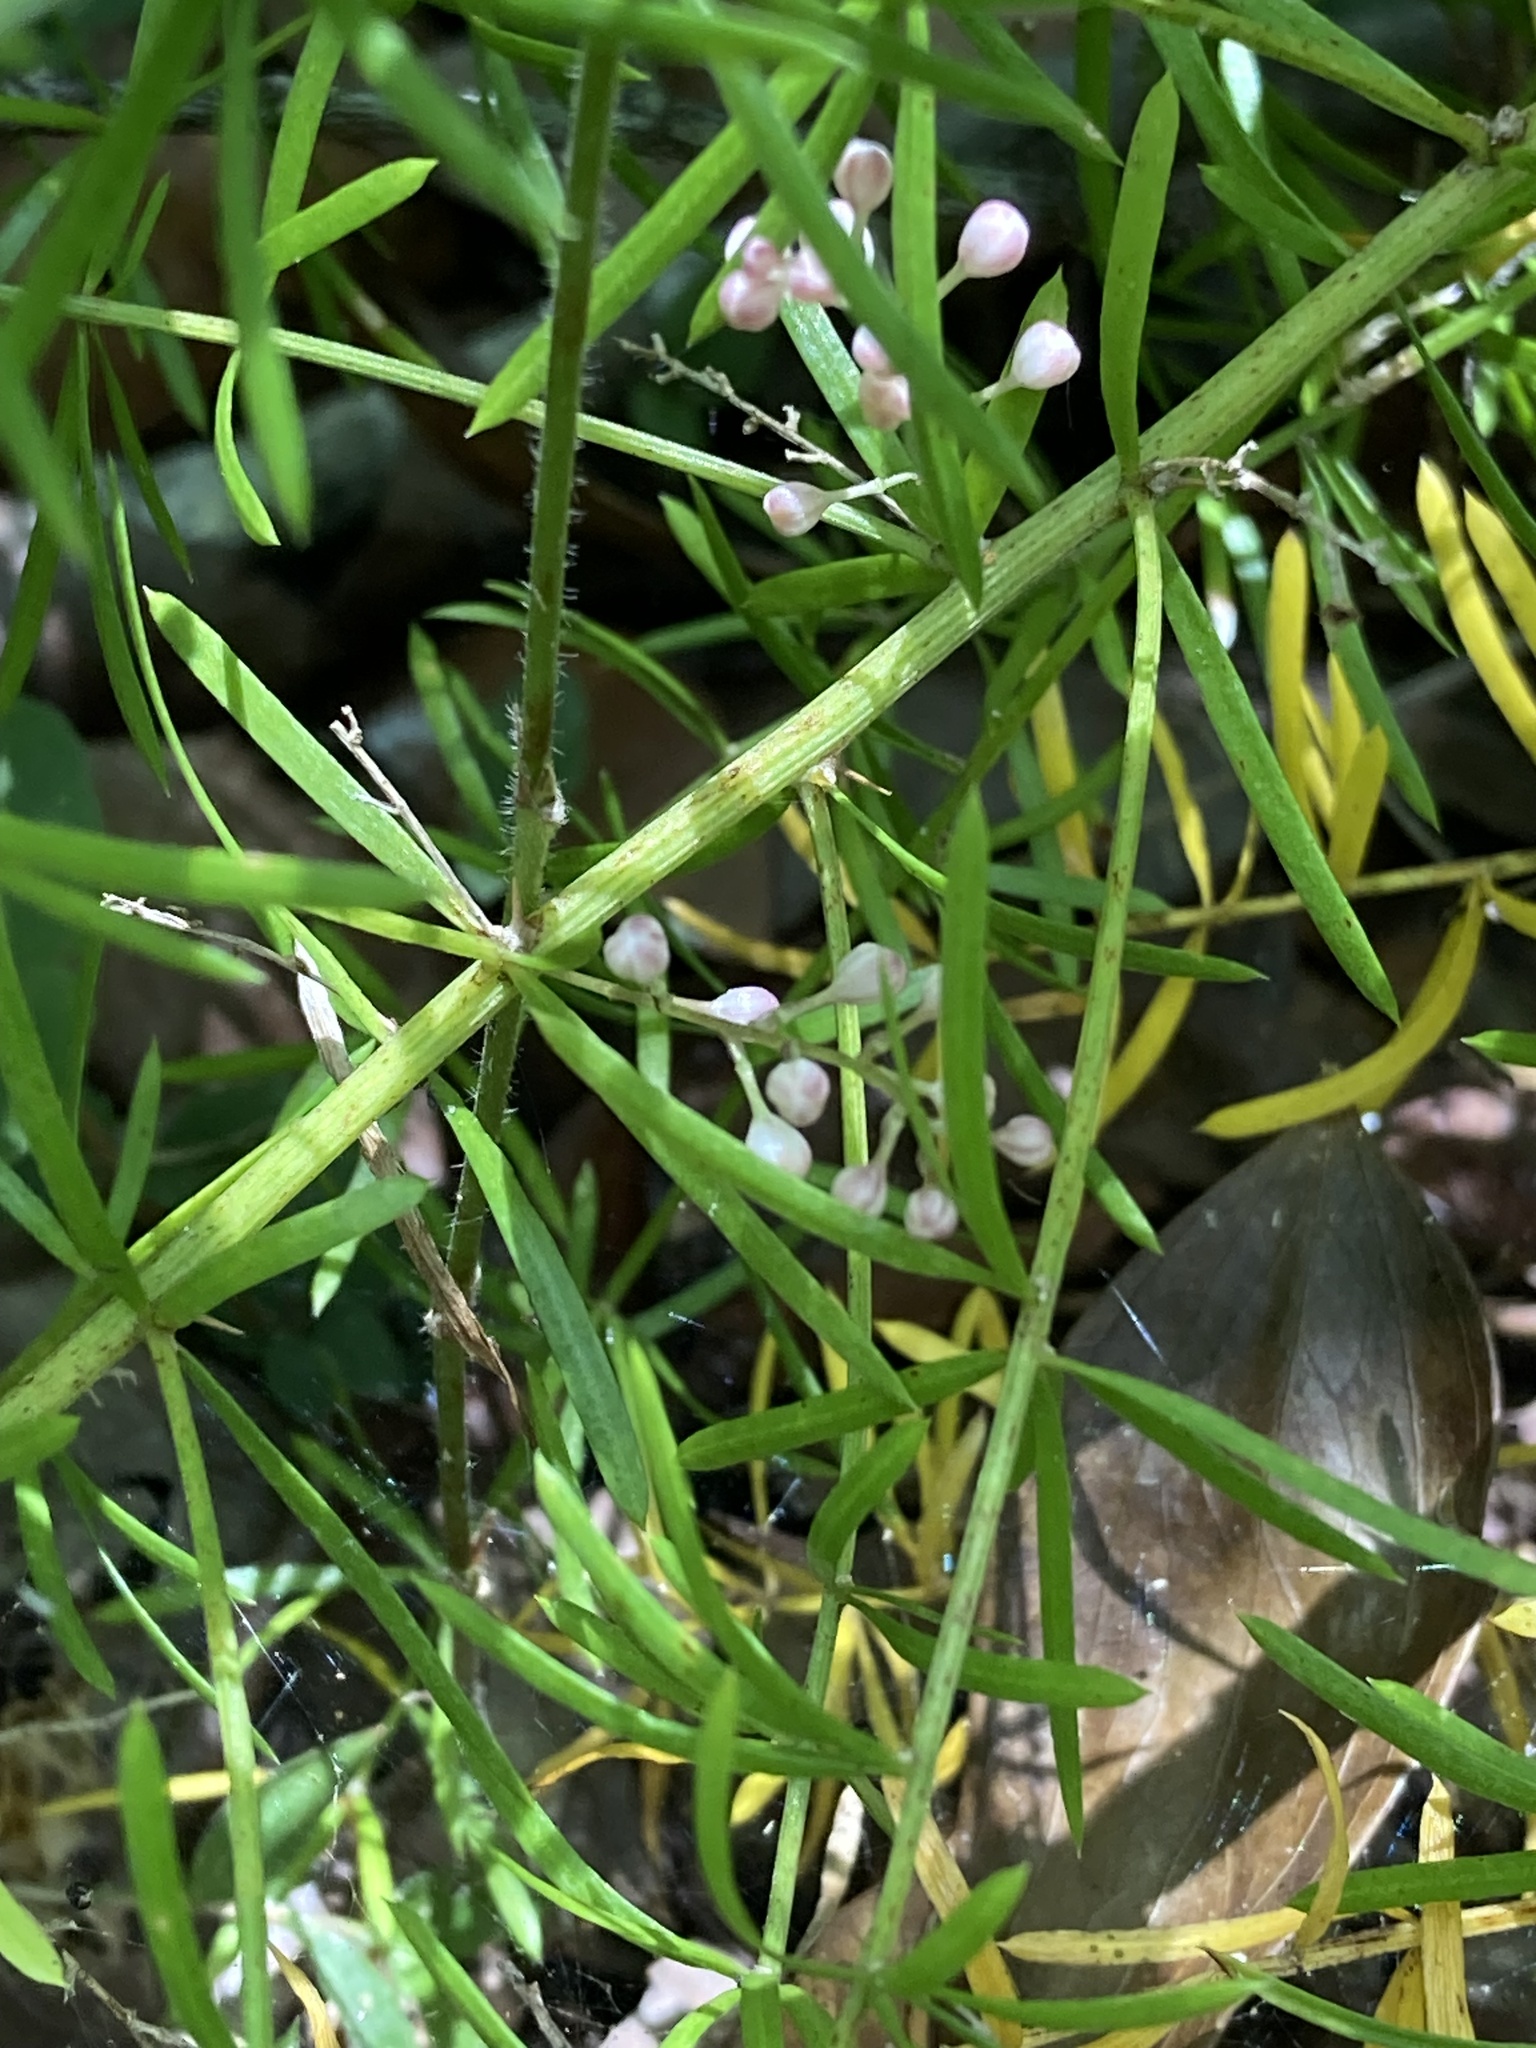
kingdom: Plantae
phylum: Tracheophyta
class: Liliopsida
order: Asparagales
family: Asparagaceae
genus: Asparagus
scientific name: Asparagus aethiopicus
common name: Sprenger's asparagus fern
